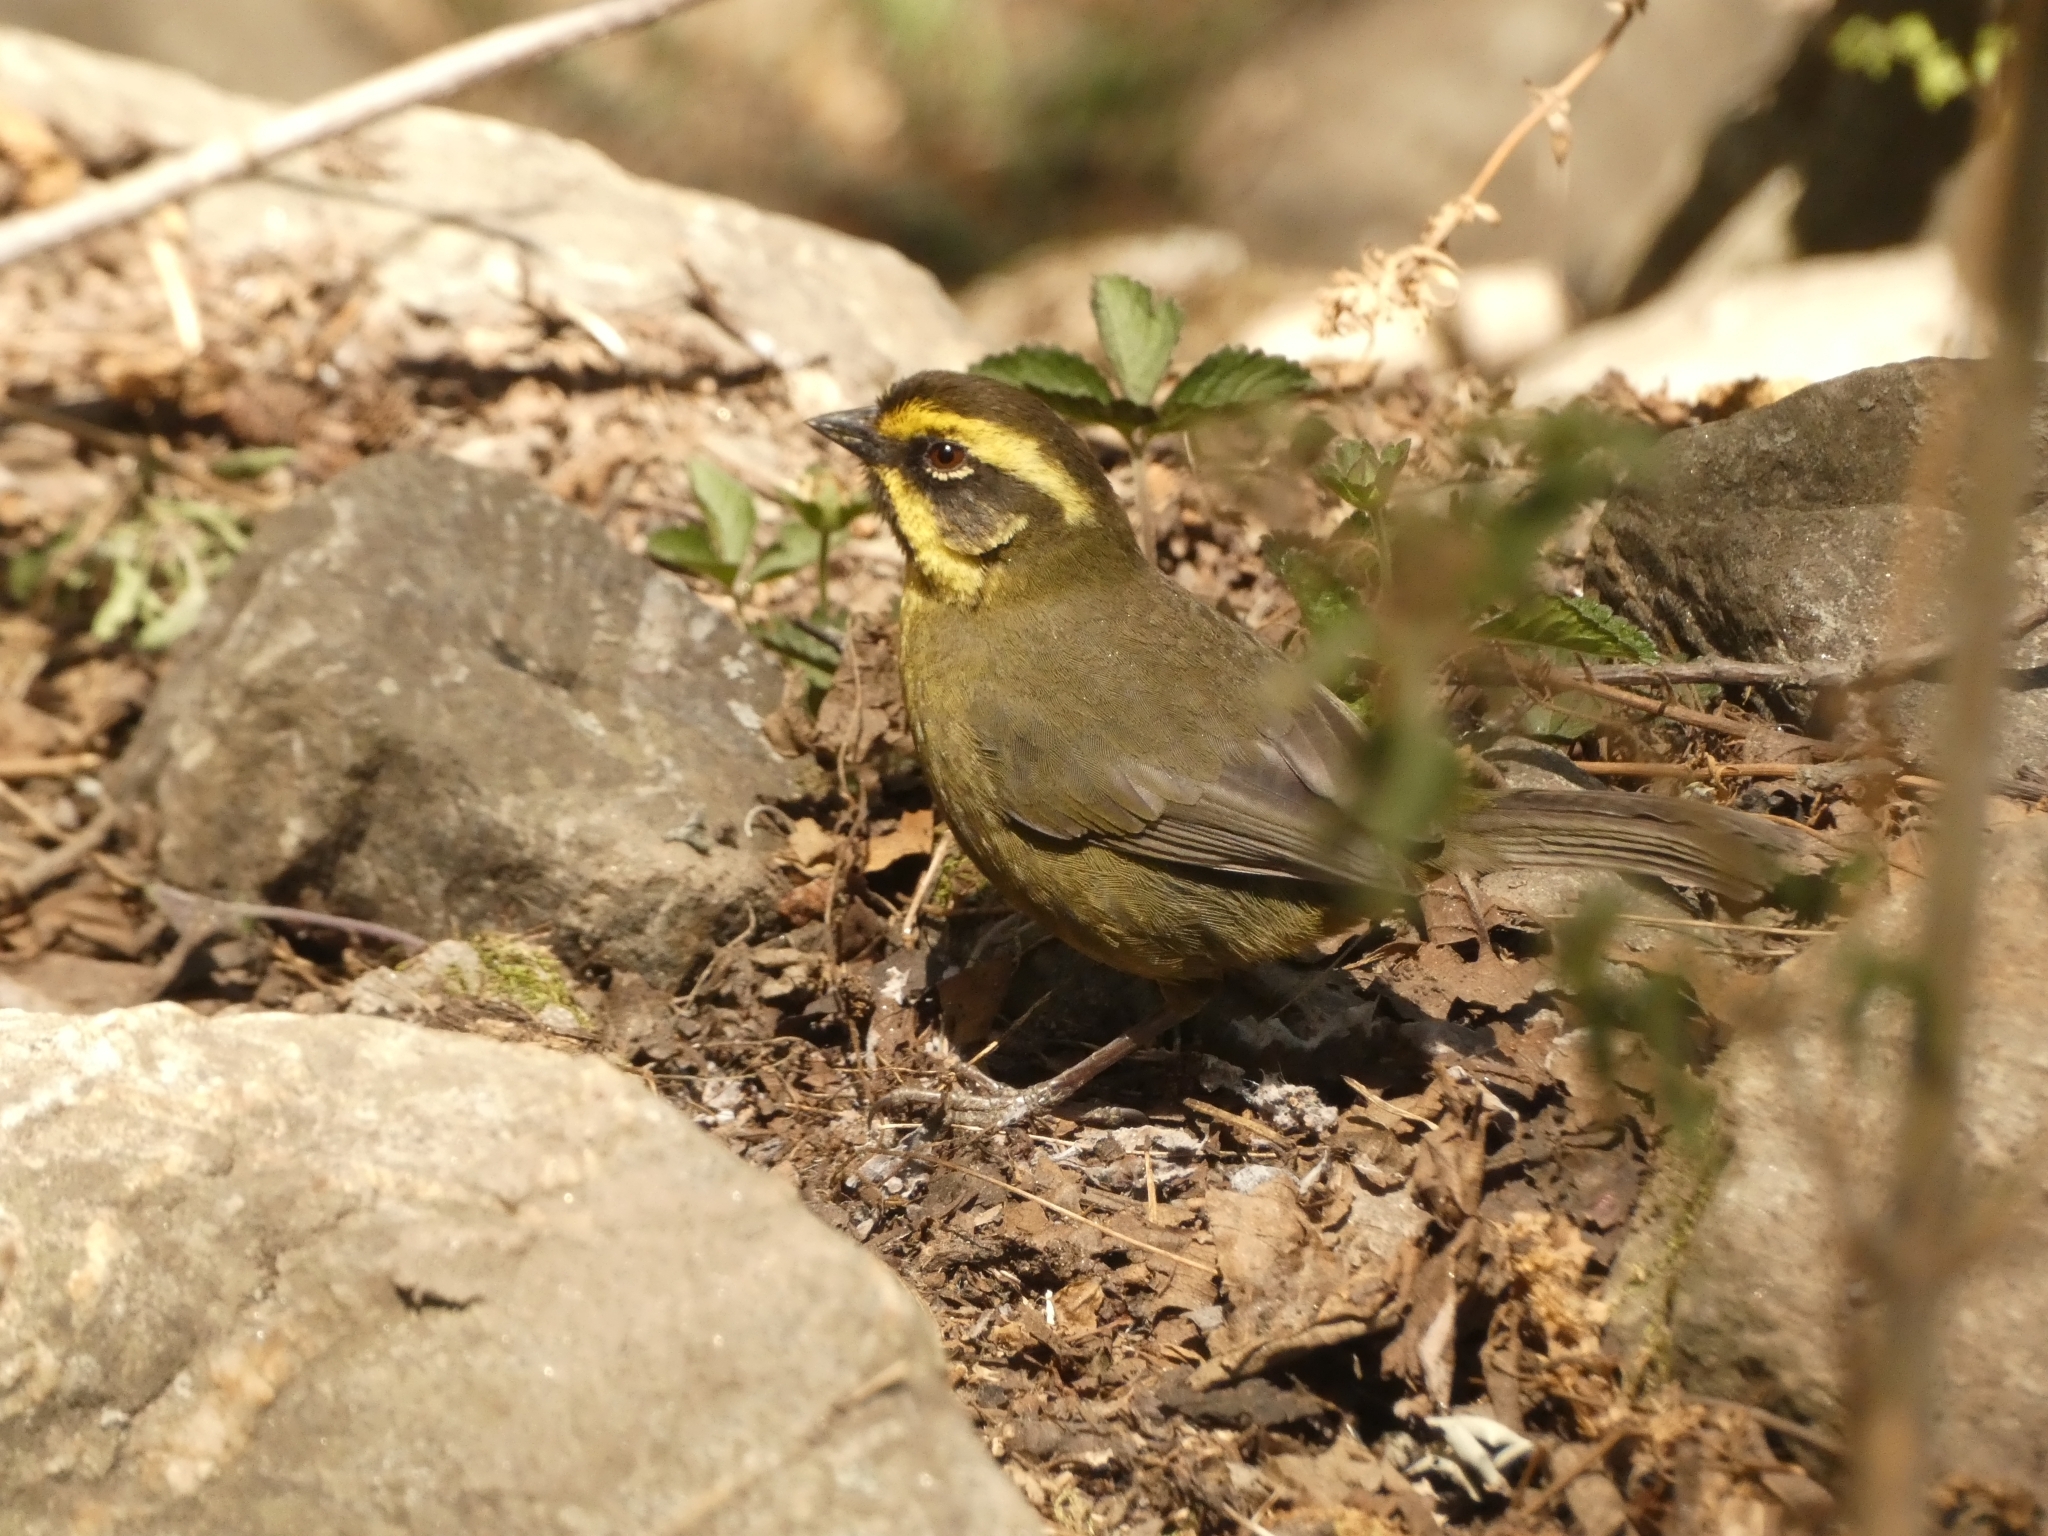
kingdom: Animalia
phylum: Chordata
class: Aves
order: Passeriformes
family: Passerellidae
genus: Atlapetes
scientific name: Atlapetes citrinellus
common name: Yellow-striped brushfinch
